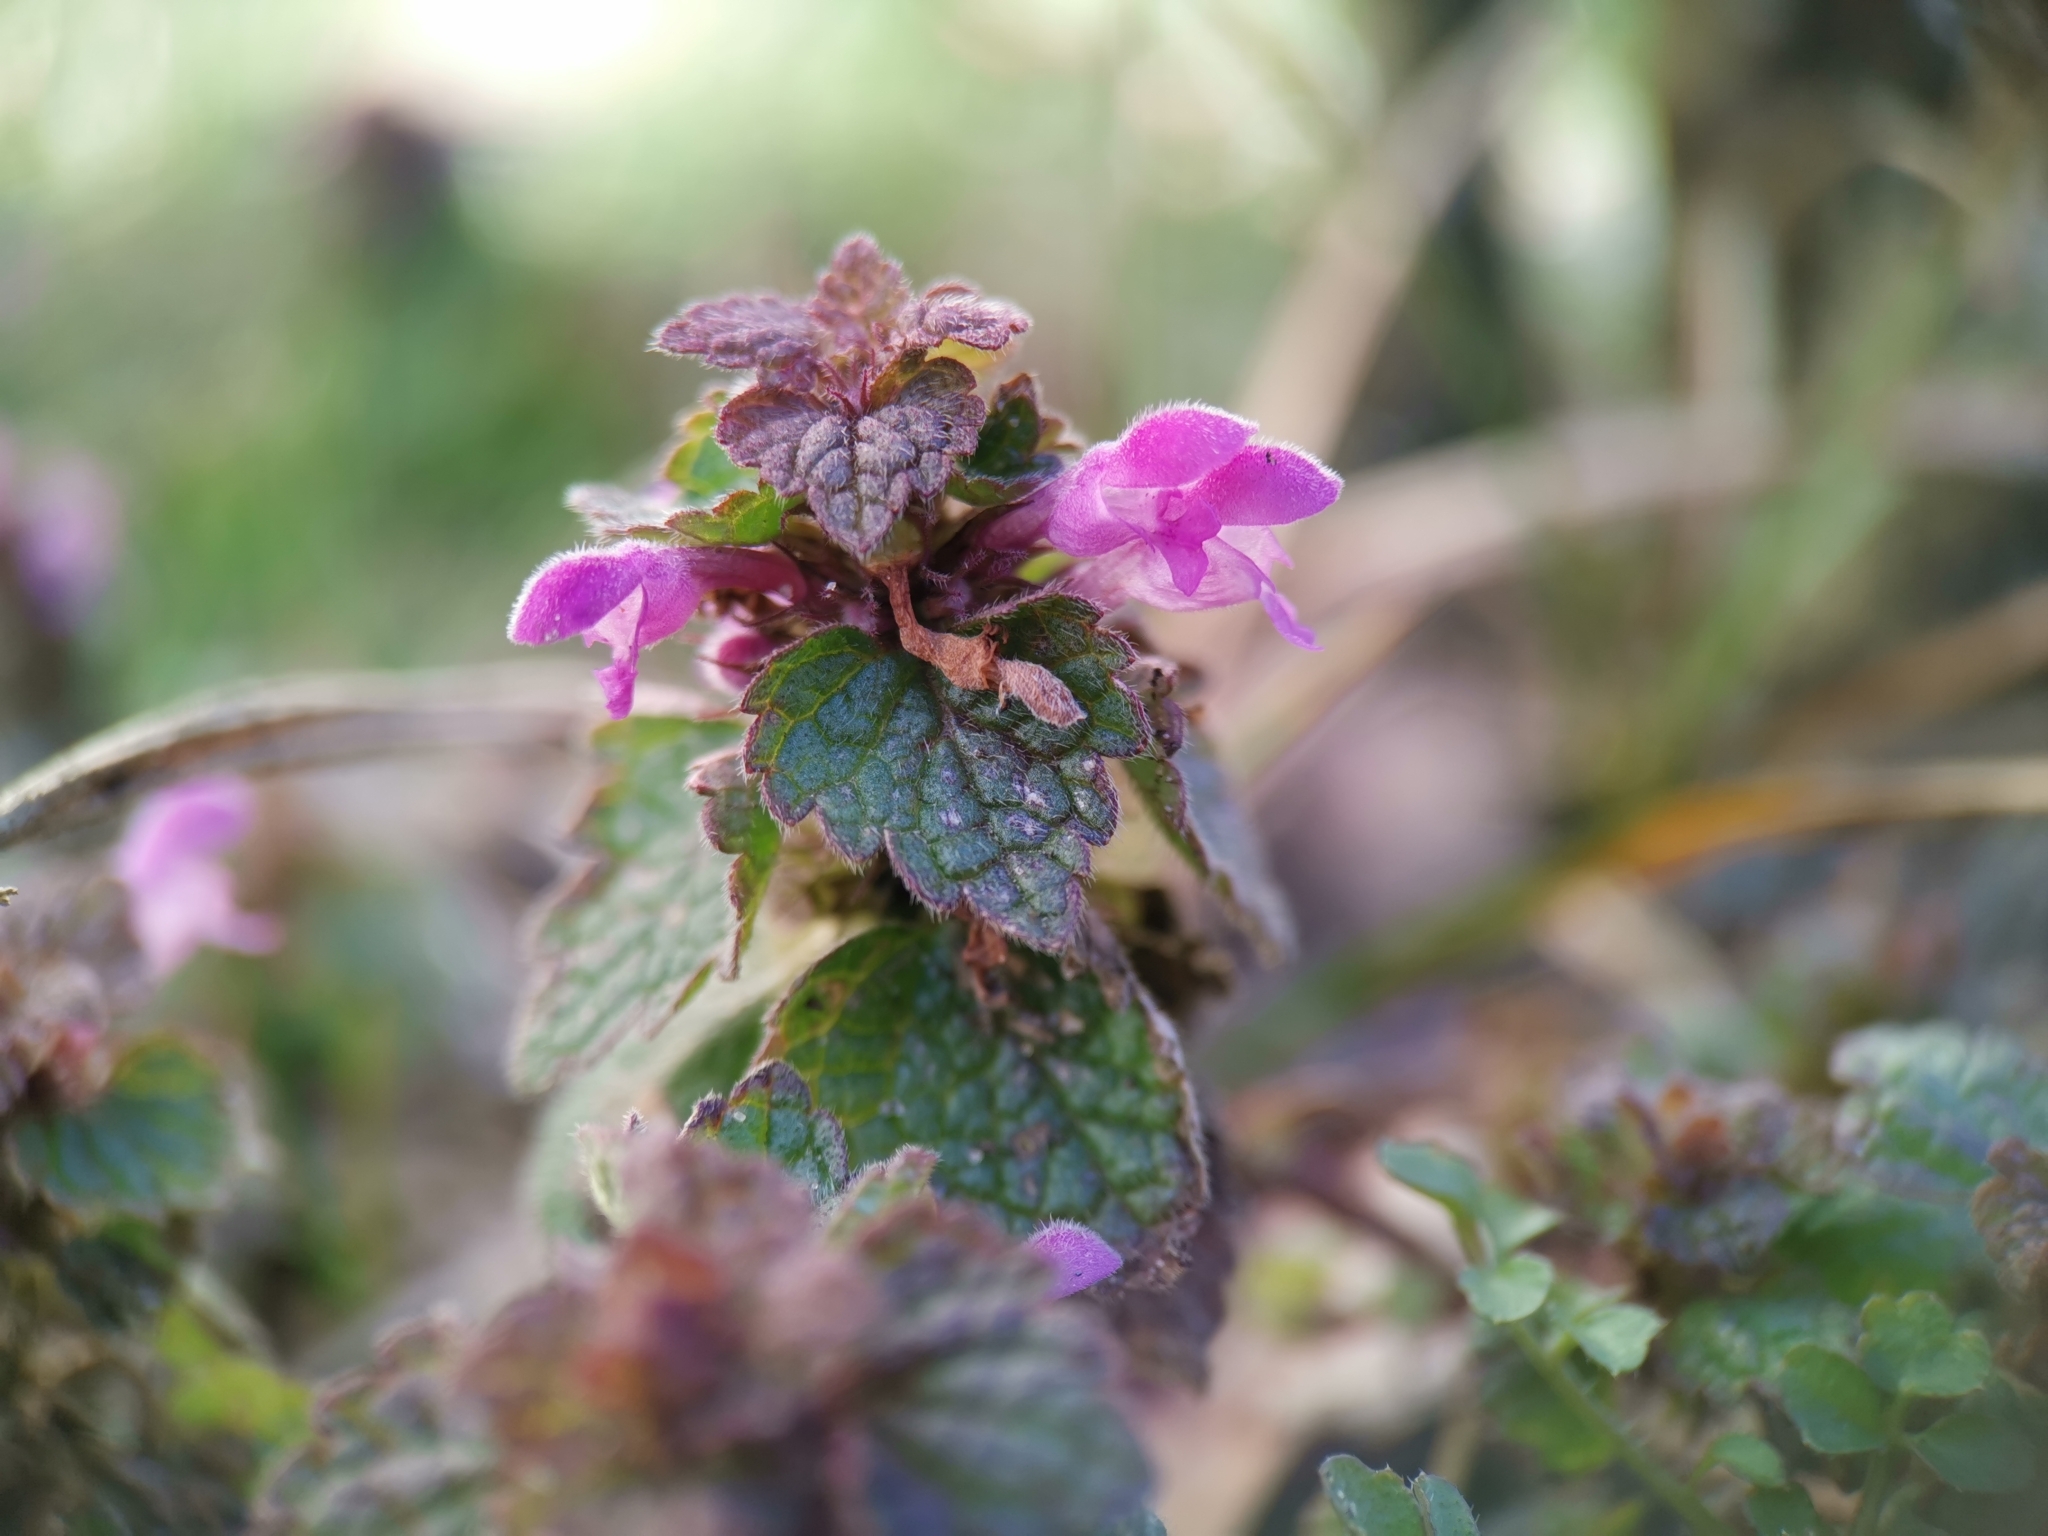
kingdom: Plantae
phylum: Tracheophyta
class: Magnoliopsida
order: Lamiales
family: Lamiaceae
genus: Lamium
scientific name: Lamium purpureum
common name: Red dead-nettle
